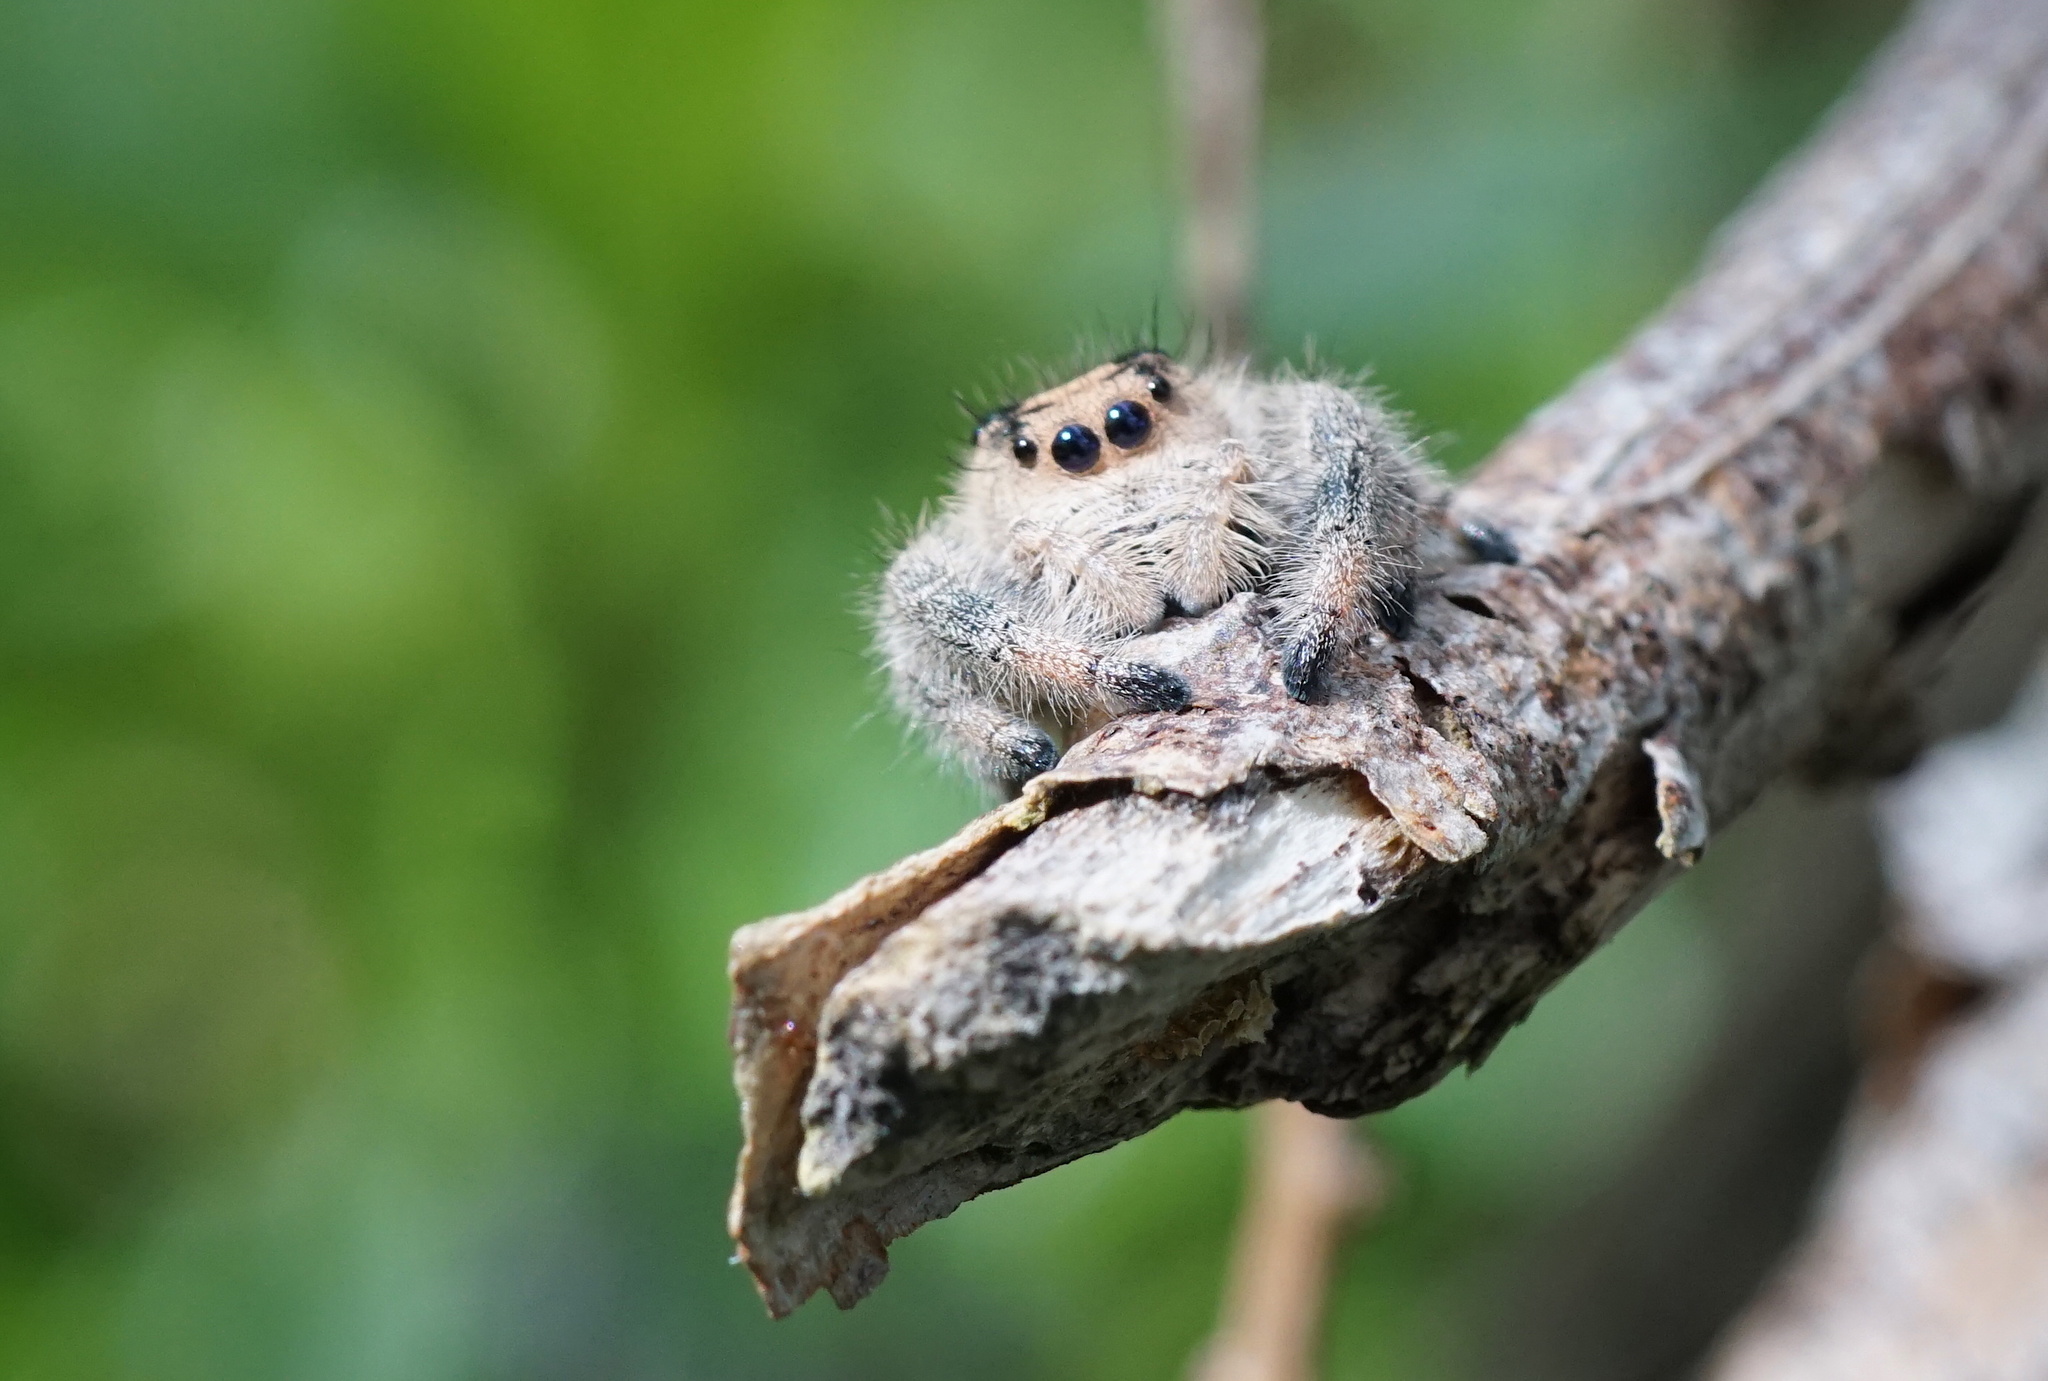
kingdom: Animalia
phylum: Arthropoda
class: Arachnida
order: Araneae
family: Salticidae
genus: Phidippus
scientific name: Phidippus regius
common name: Regal jumper
